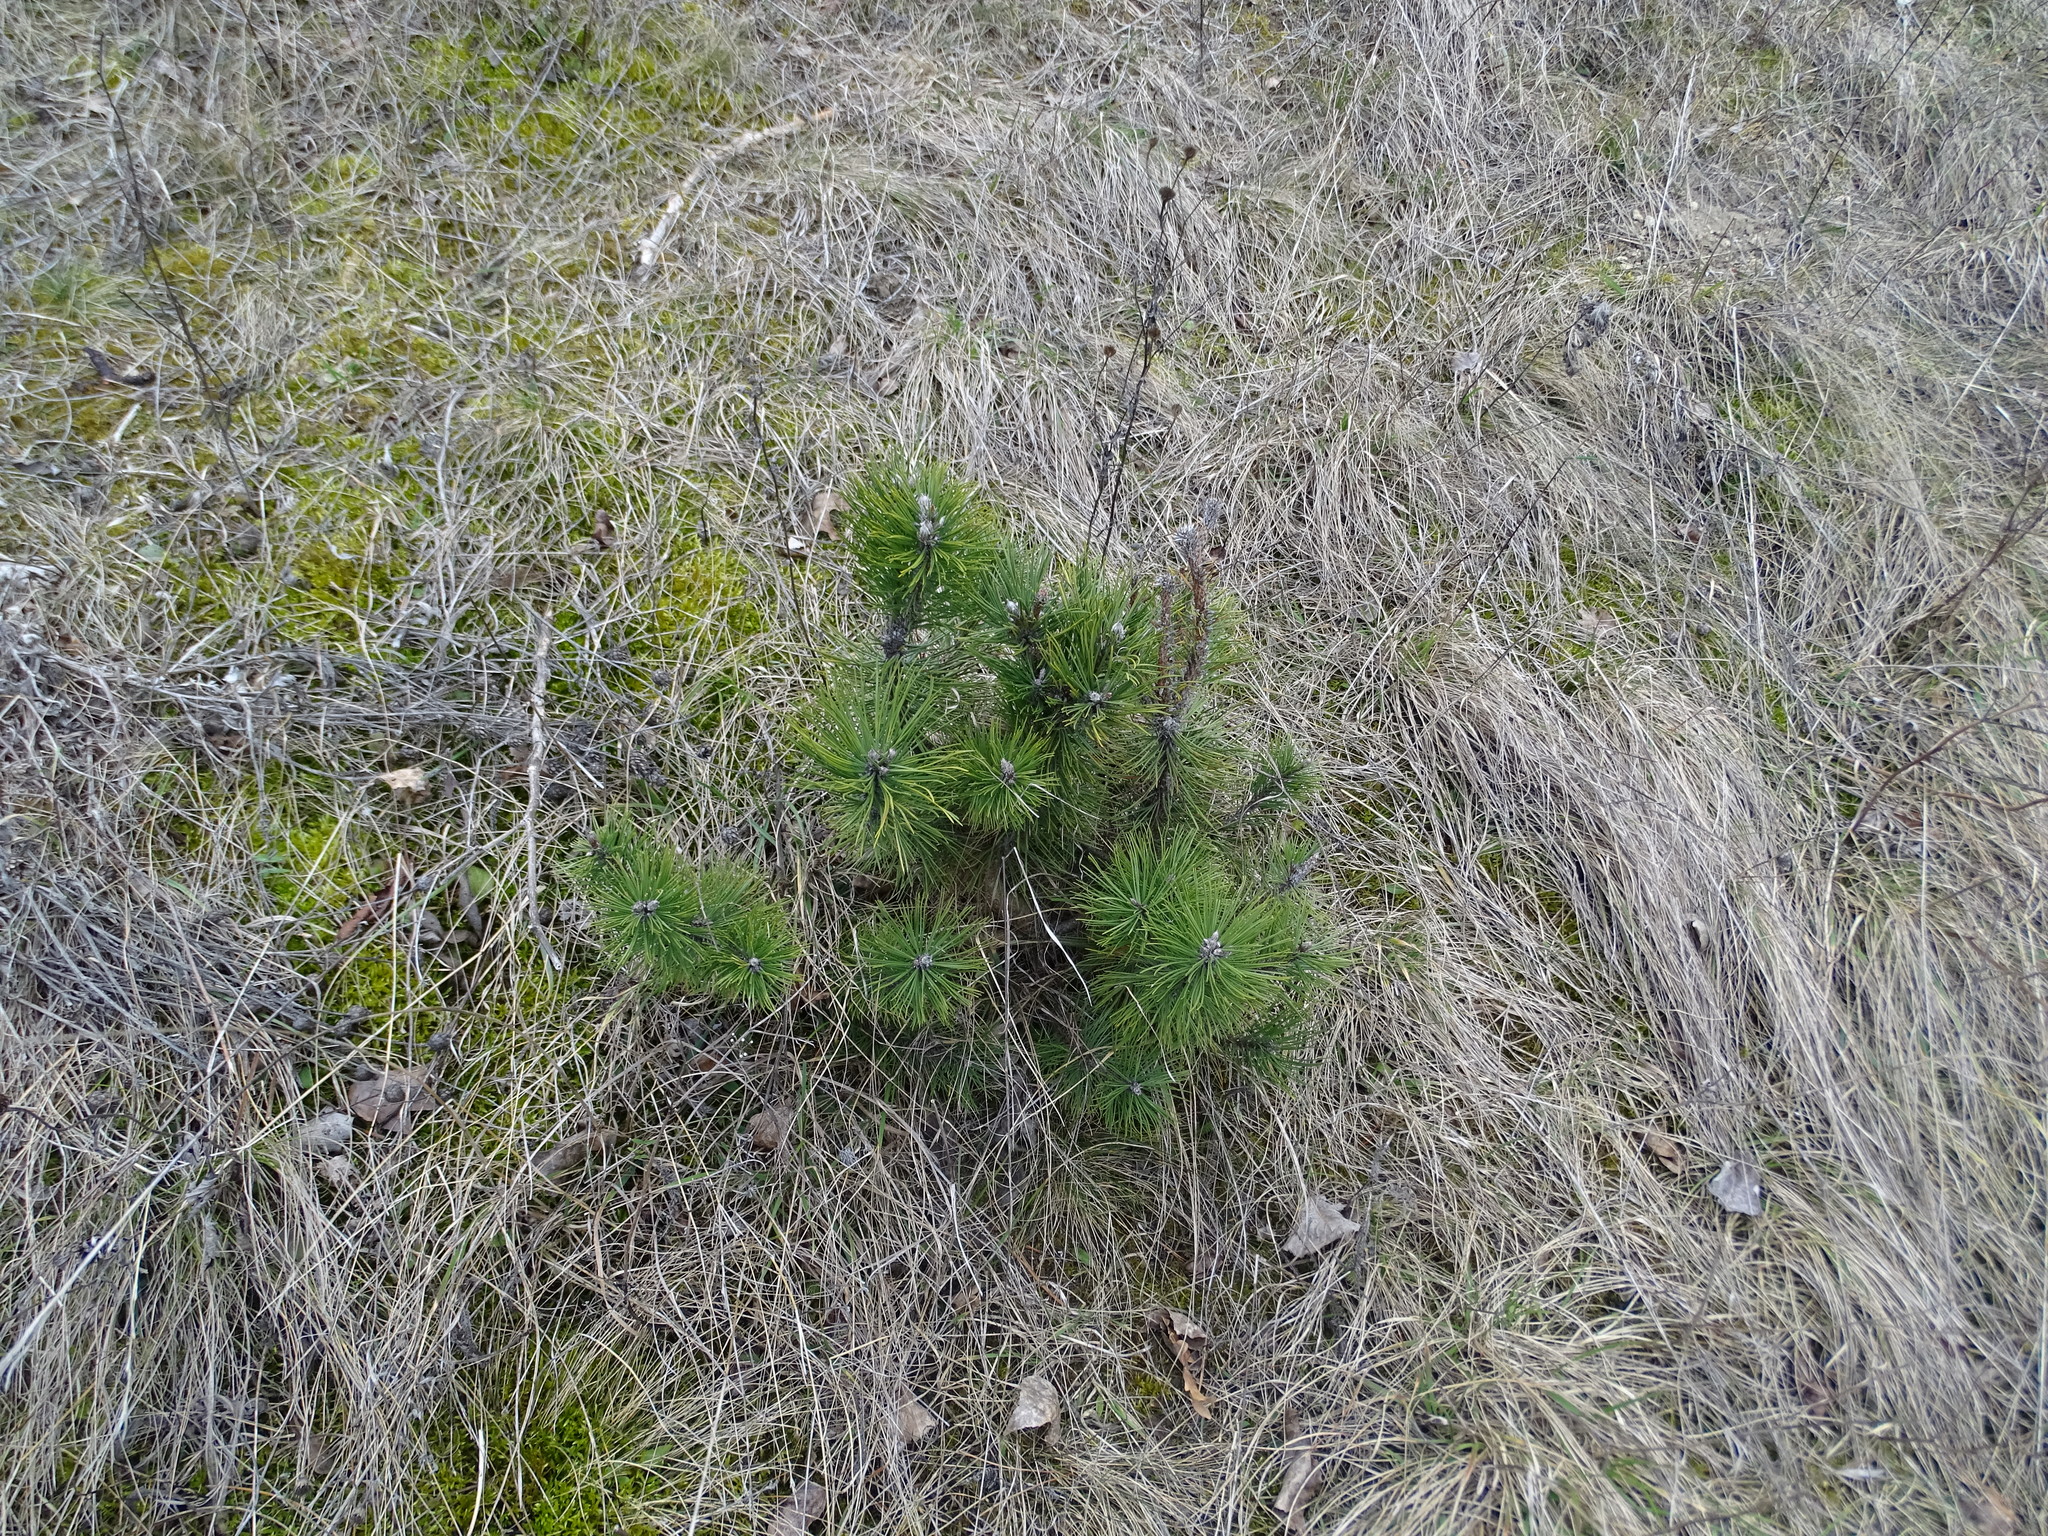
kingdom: Plantae
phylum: Tracheophyta
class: Pinopsida
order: Pinales
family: Pinaceae
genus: Pinus
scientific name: Pinus nigra
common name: Austrian pine
